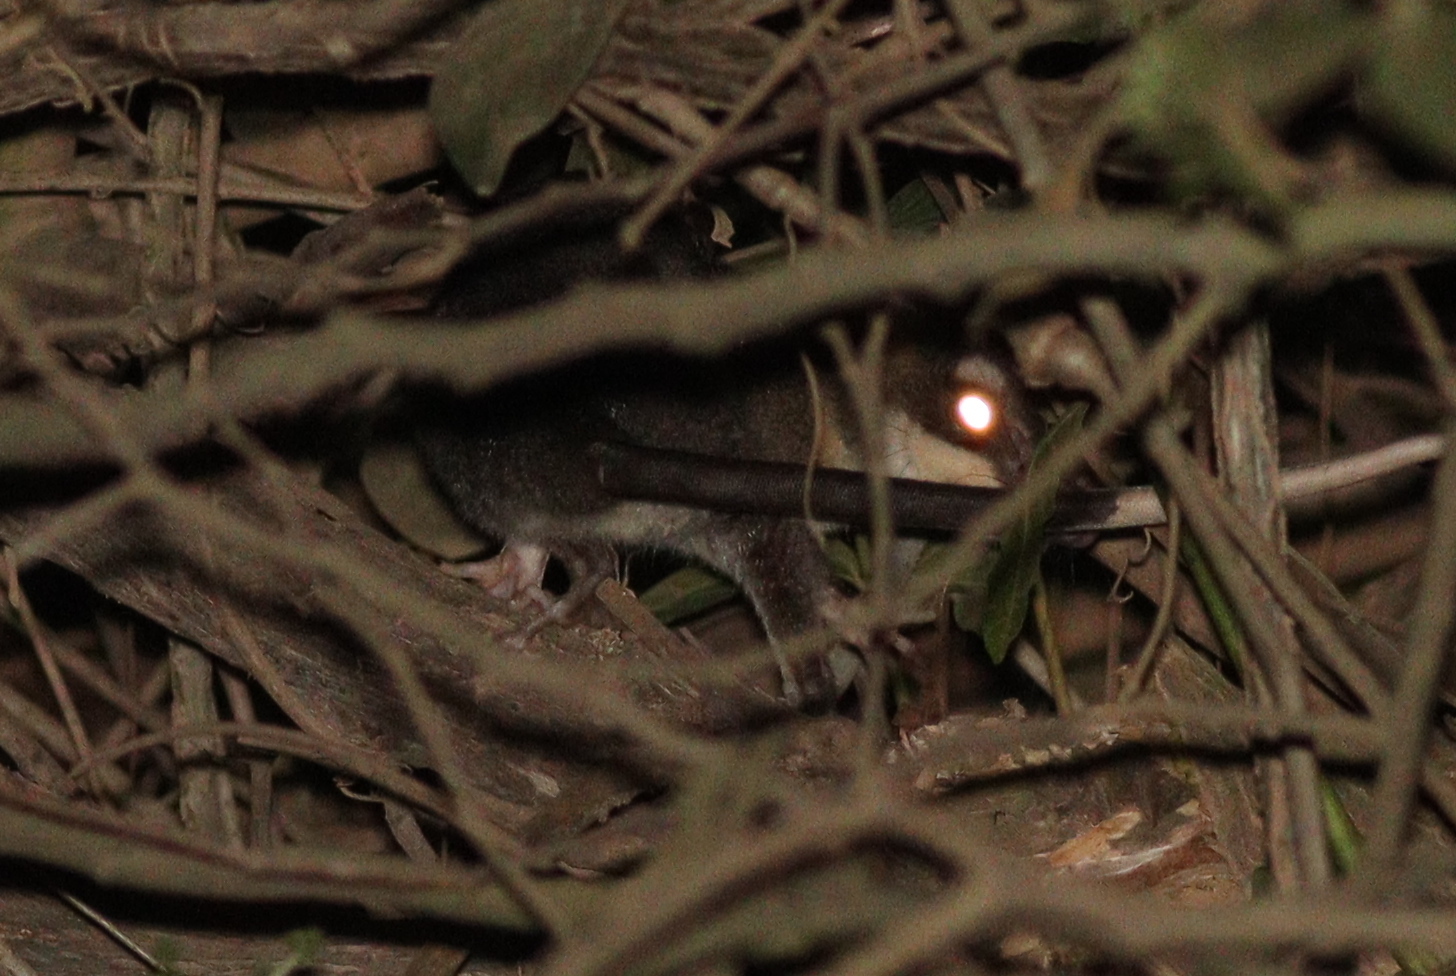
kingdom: Animalia
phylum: Chordata
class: Mammalia
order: Didelphimorphia
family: Didelphidae
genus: Philander
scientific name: Philander
